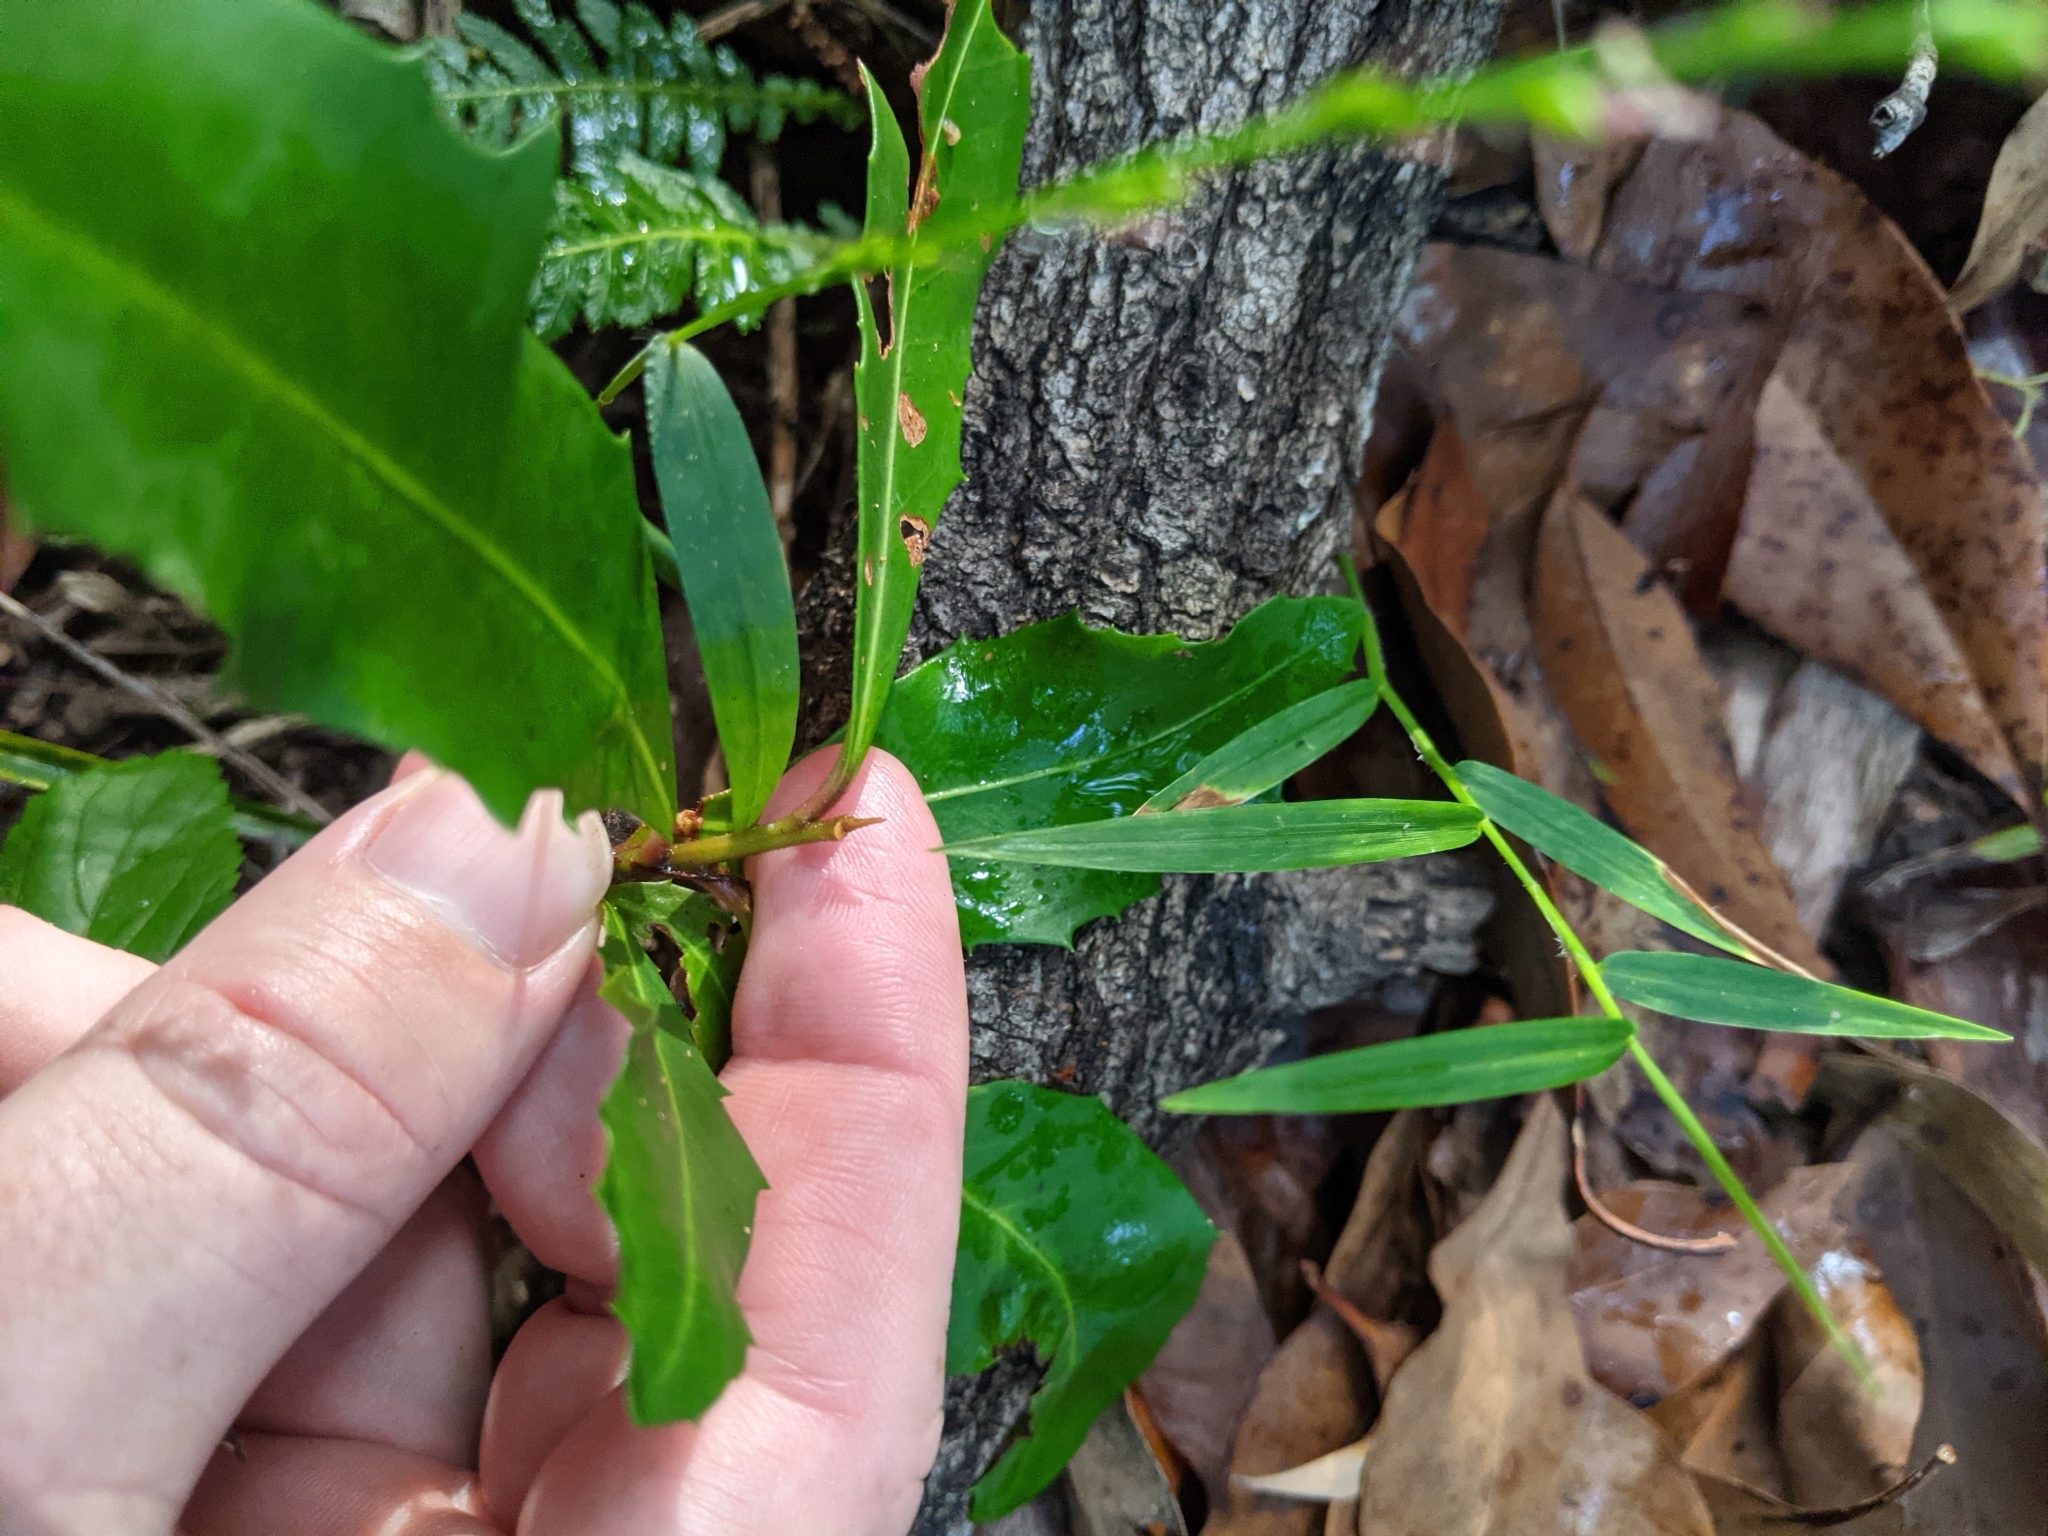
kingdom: Plantae
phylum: Tracheophyta
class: Magnoliopsida
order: Ericales
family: Primulaceae
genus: Myrsine
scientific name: Myrsine variabilis
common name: Brush muttonwood
